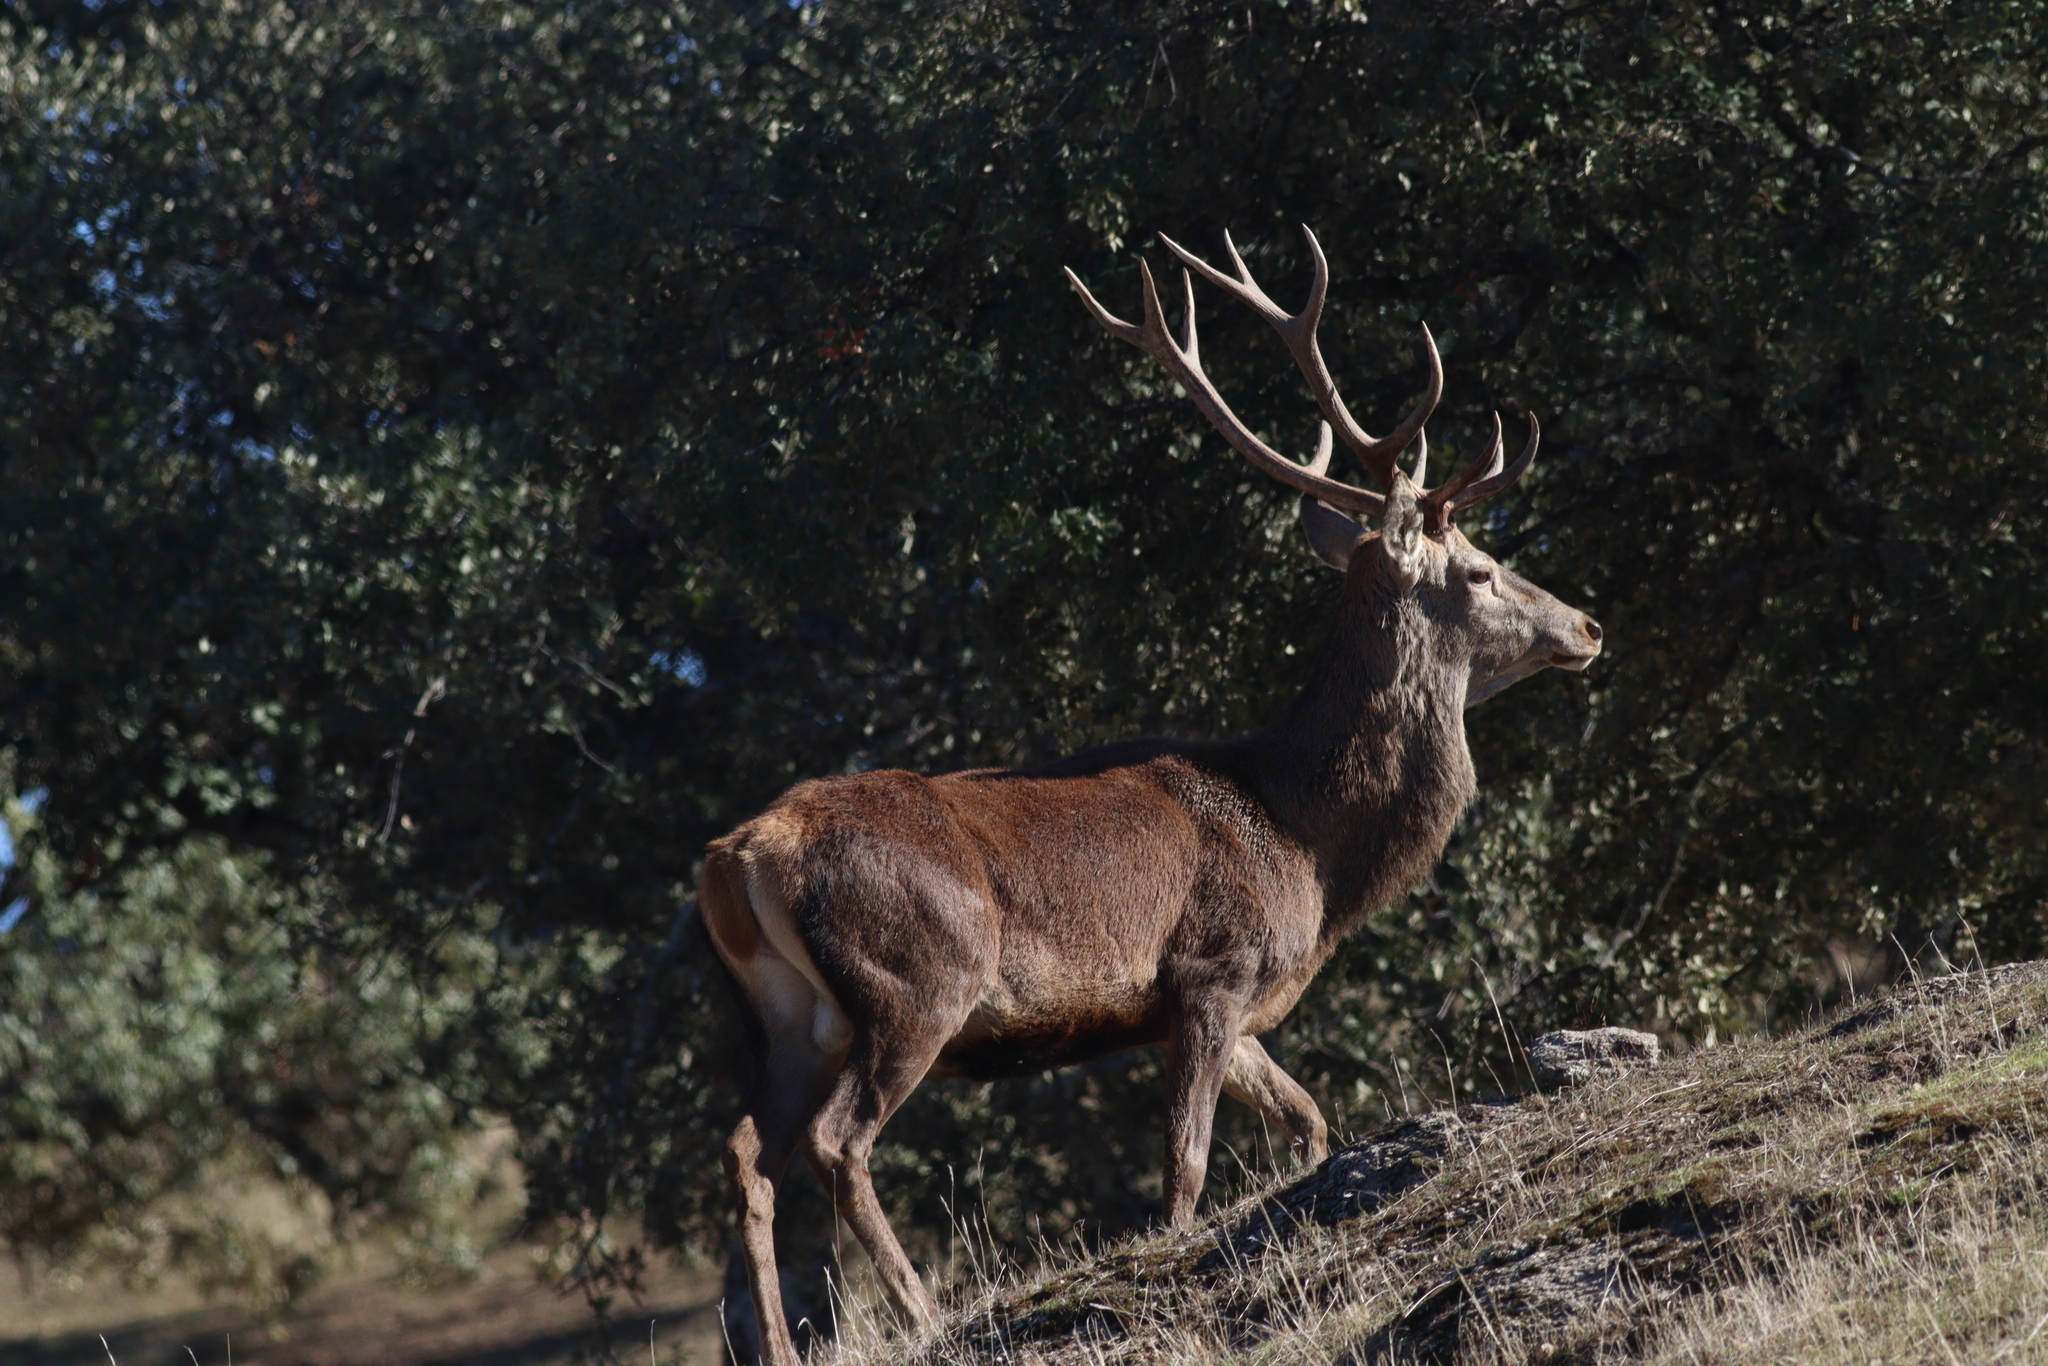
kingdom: Animalia
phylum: Chordata
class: Mammalia
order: Artiodactyla
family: Cervidae
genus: Cervus
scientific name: Cervus elaphus
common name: Red deer
